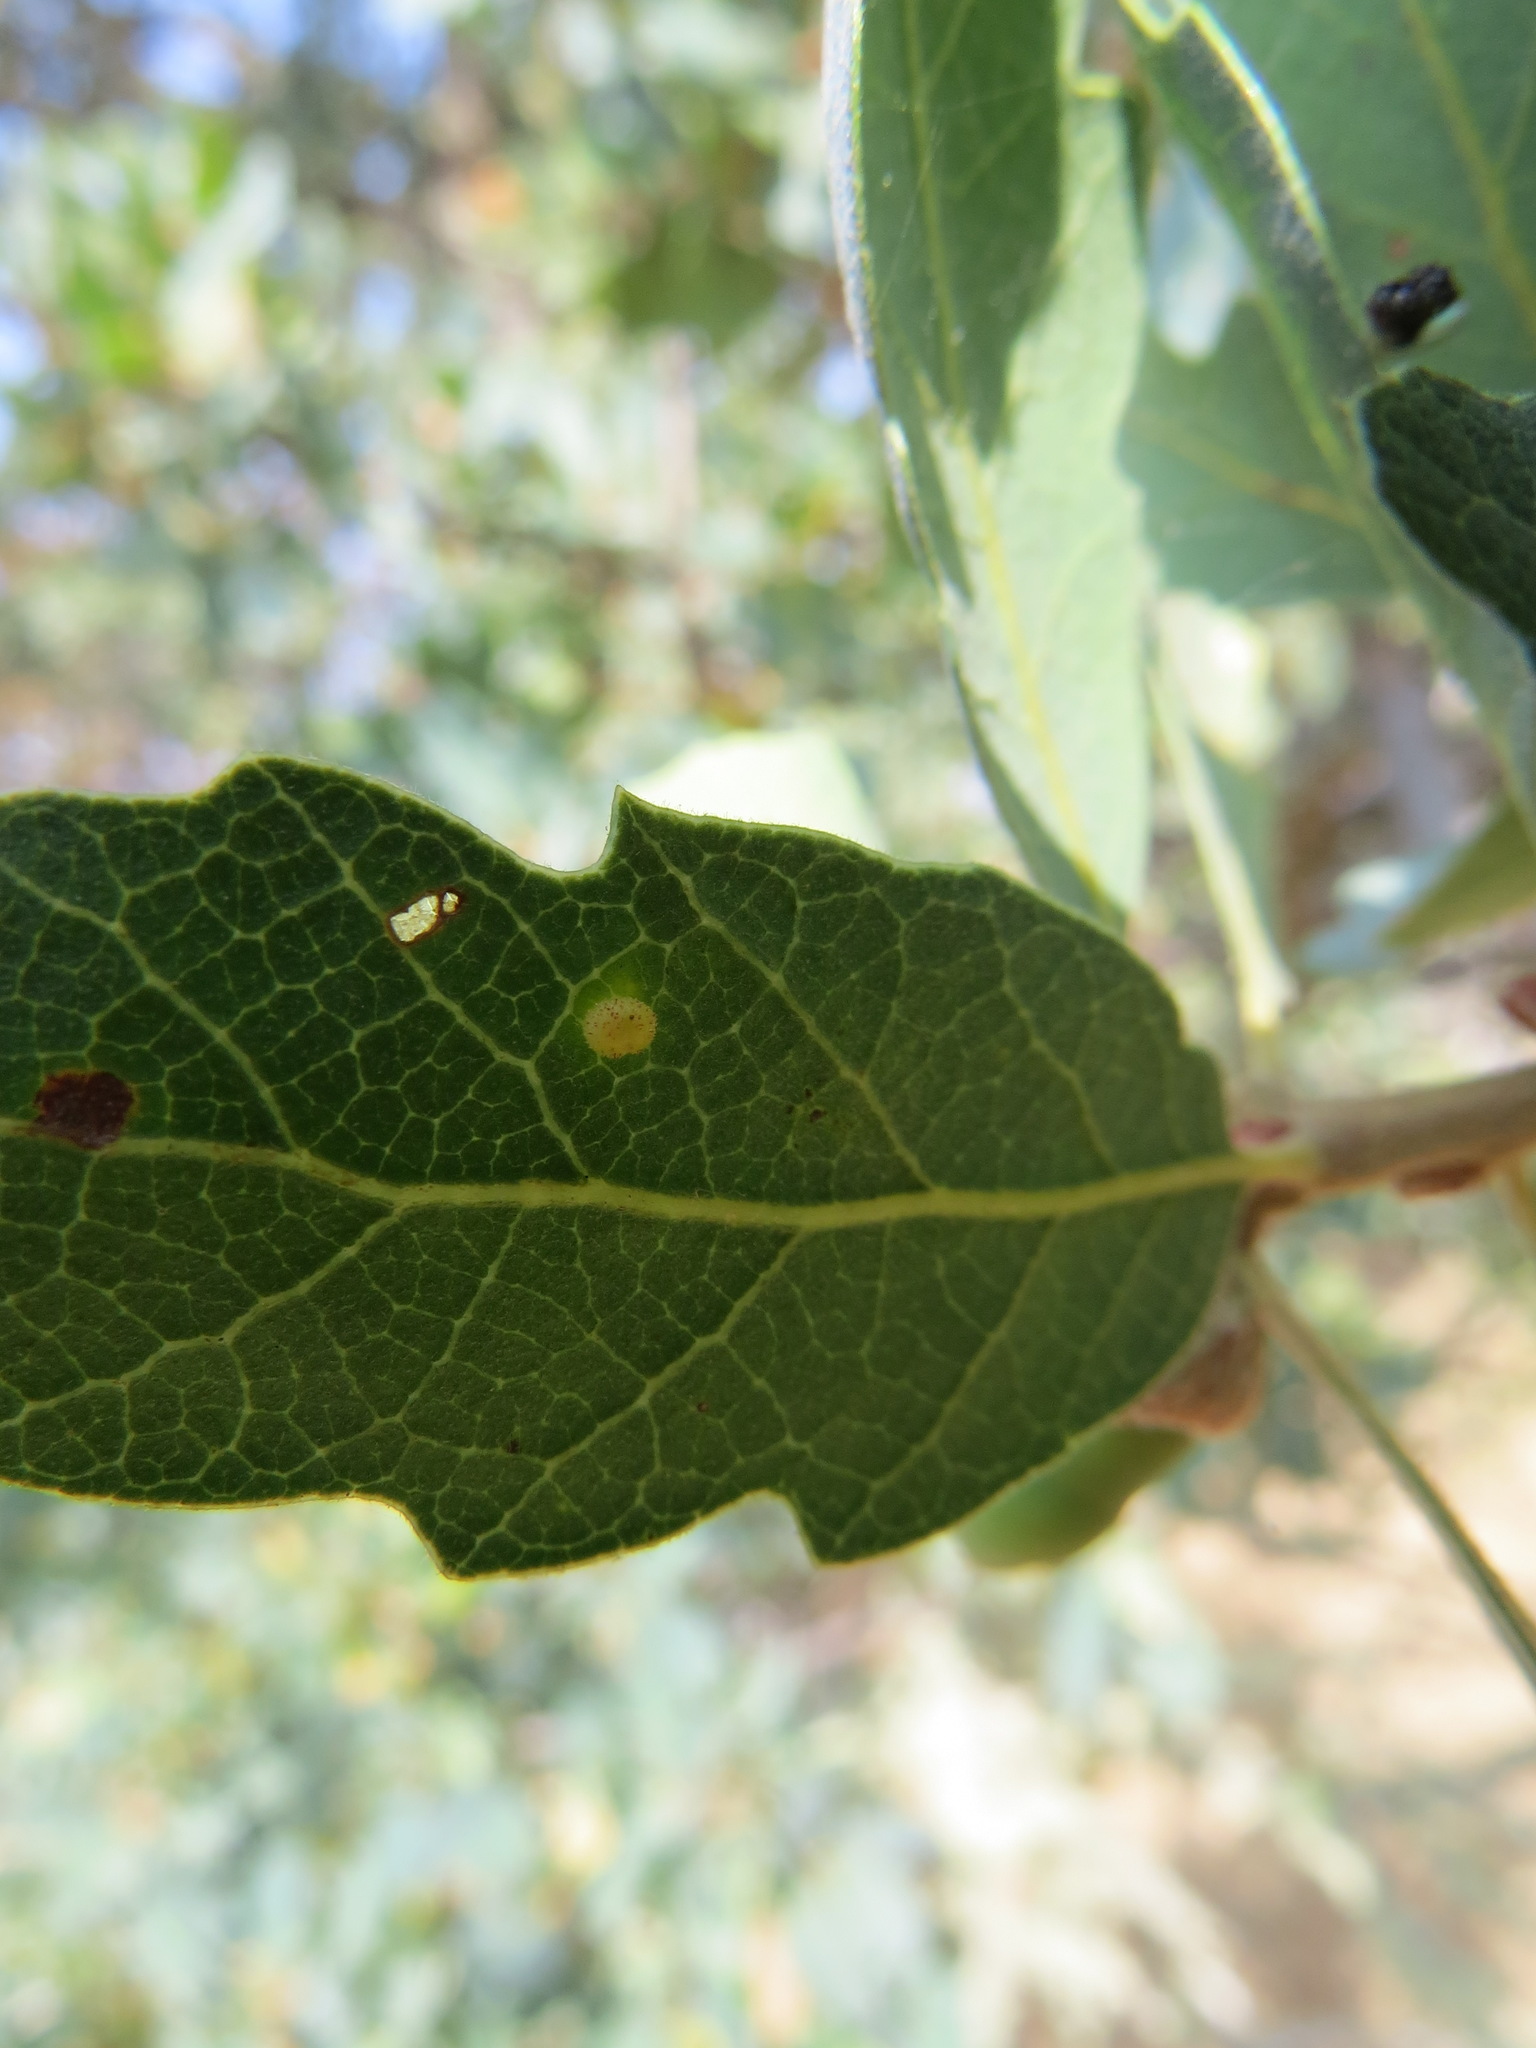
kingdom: Animalia
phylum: Arthropoda
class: Insecta
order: Hymenoptera
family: Cynipidae
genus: Neuroterus
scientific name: Neuroterus saltarius
